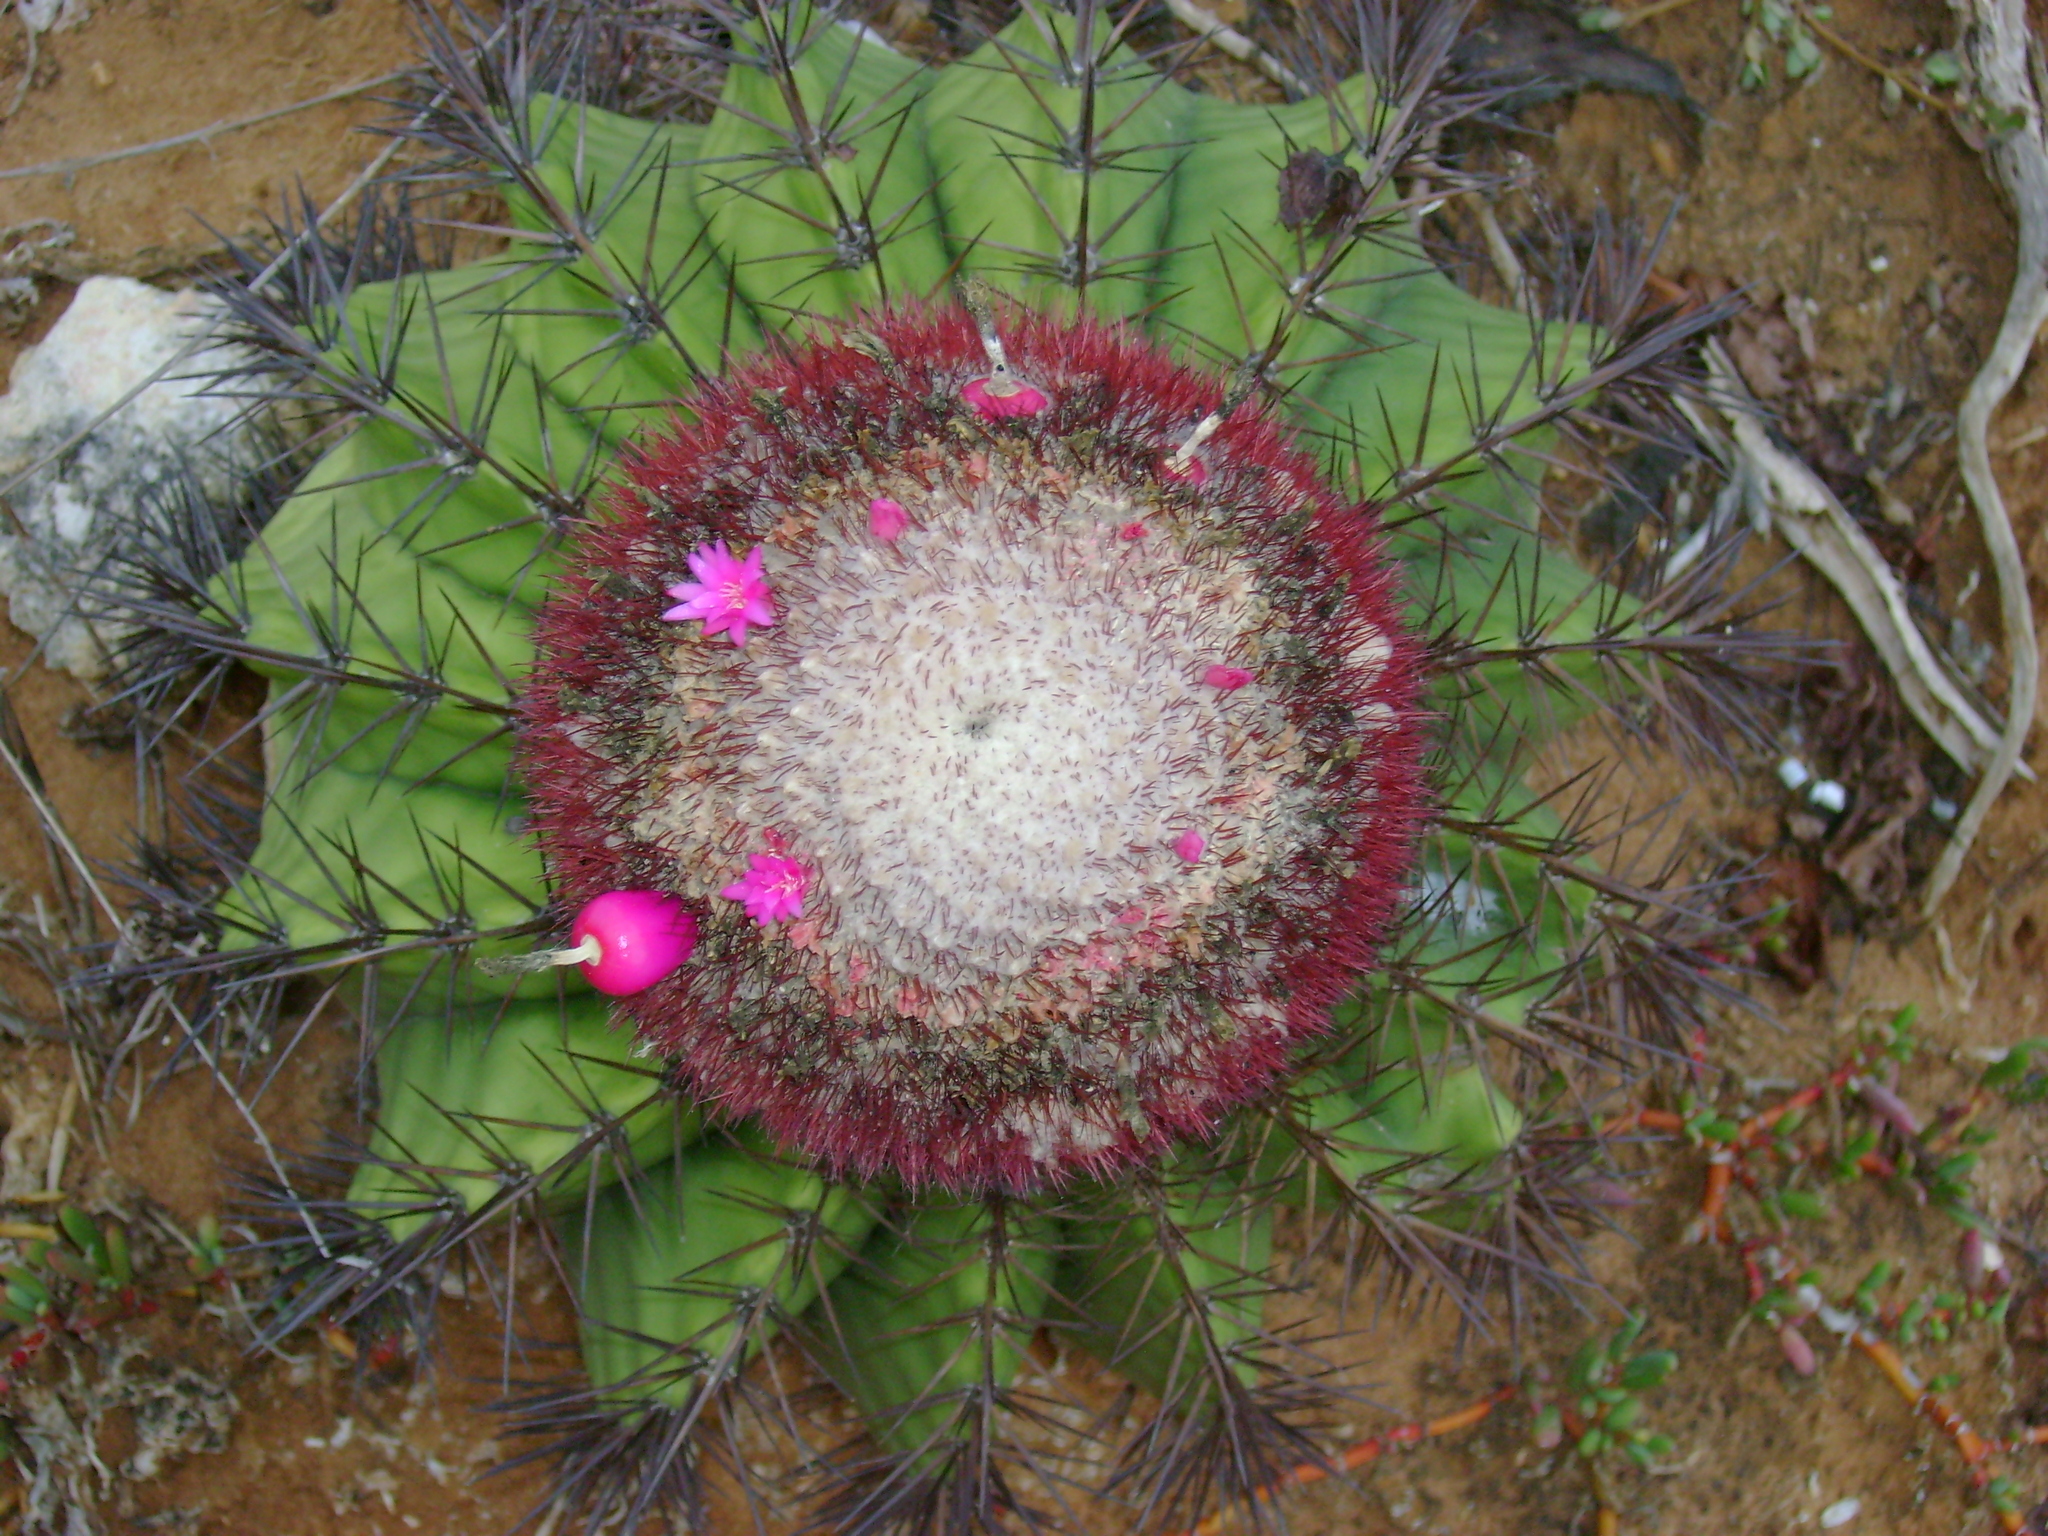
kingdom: Plantae
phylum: Tracheophyta
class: Magnoliopsida
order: Caryophyllales
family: Cactaceae
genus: Melocactus
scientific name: Melocactus intortus
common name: Barrel cactus
